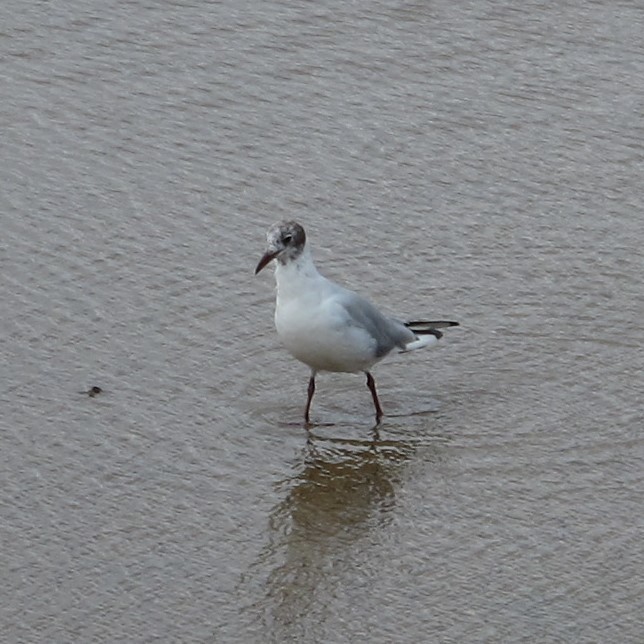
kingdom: Animalia
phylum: Chordata
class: Aves
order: Charadriiformes
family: Laridae
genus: Chroicocephalus
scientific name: Chroicocephalus ridibundus
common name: Black-headed gull
